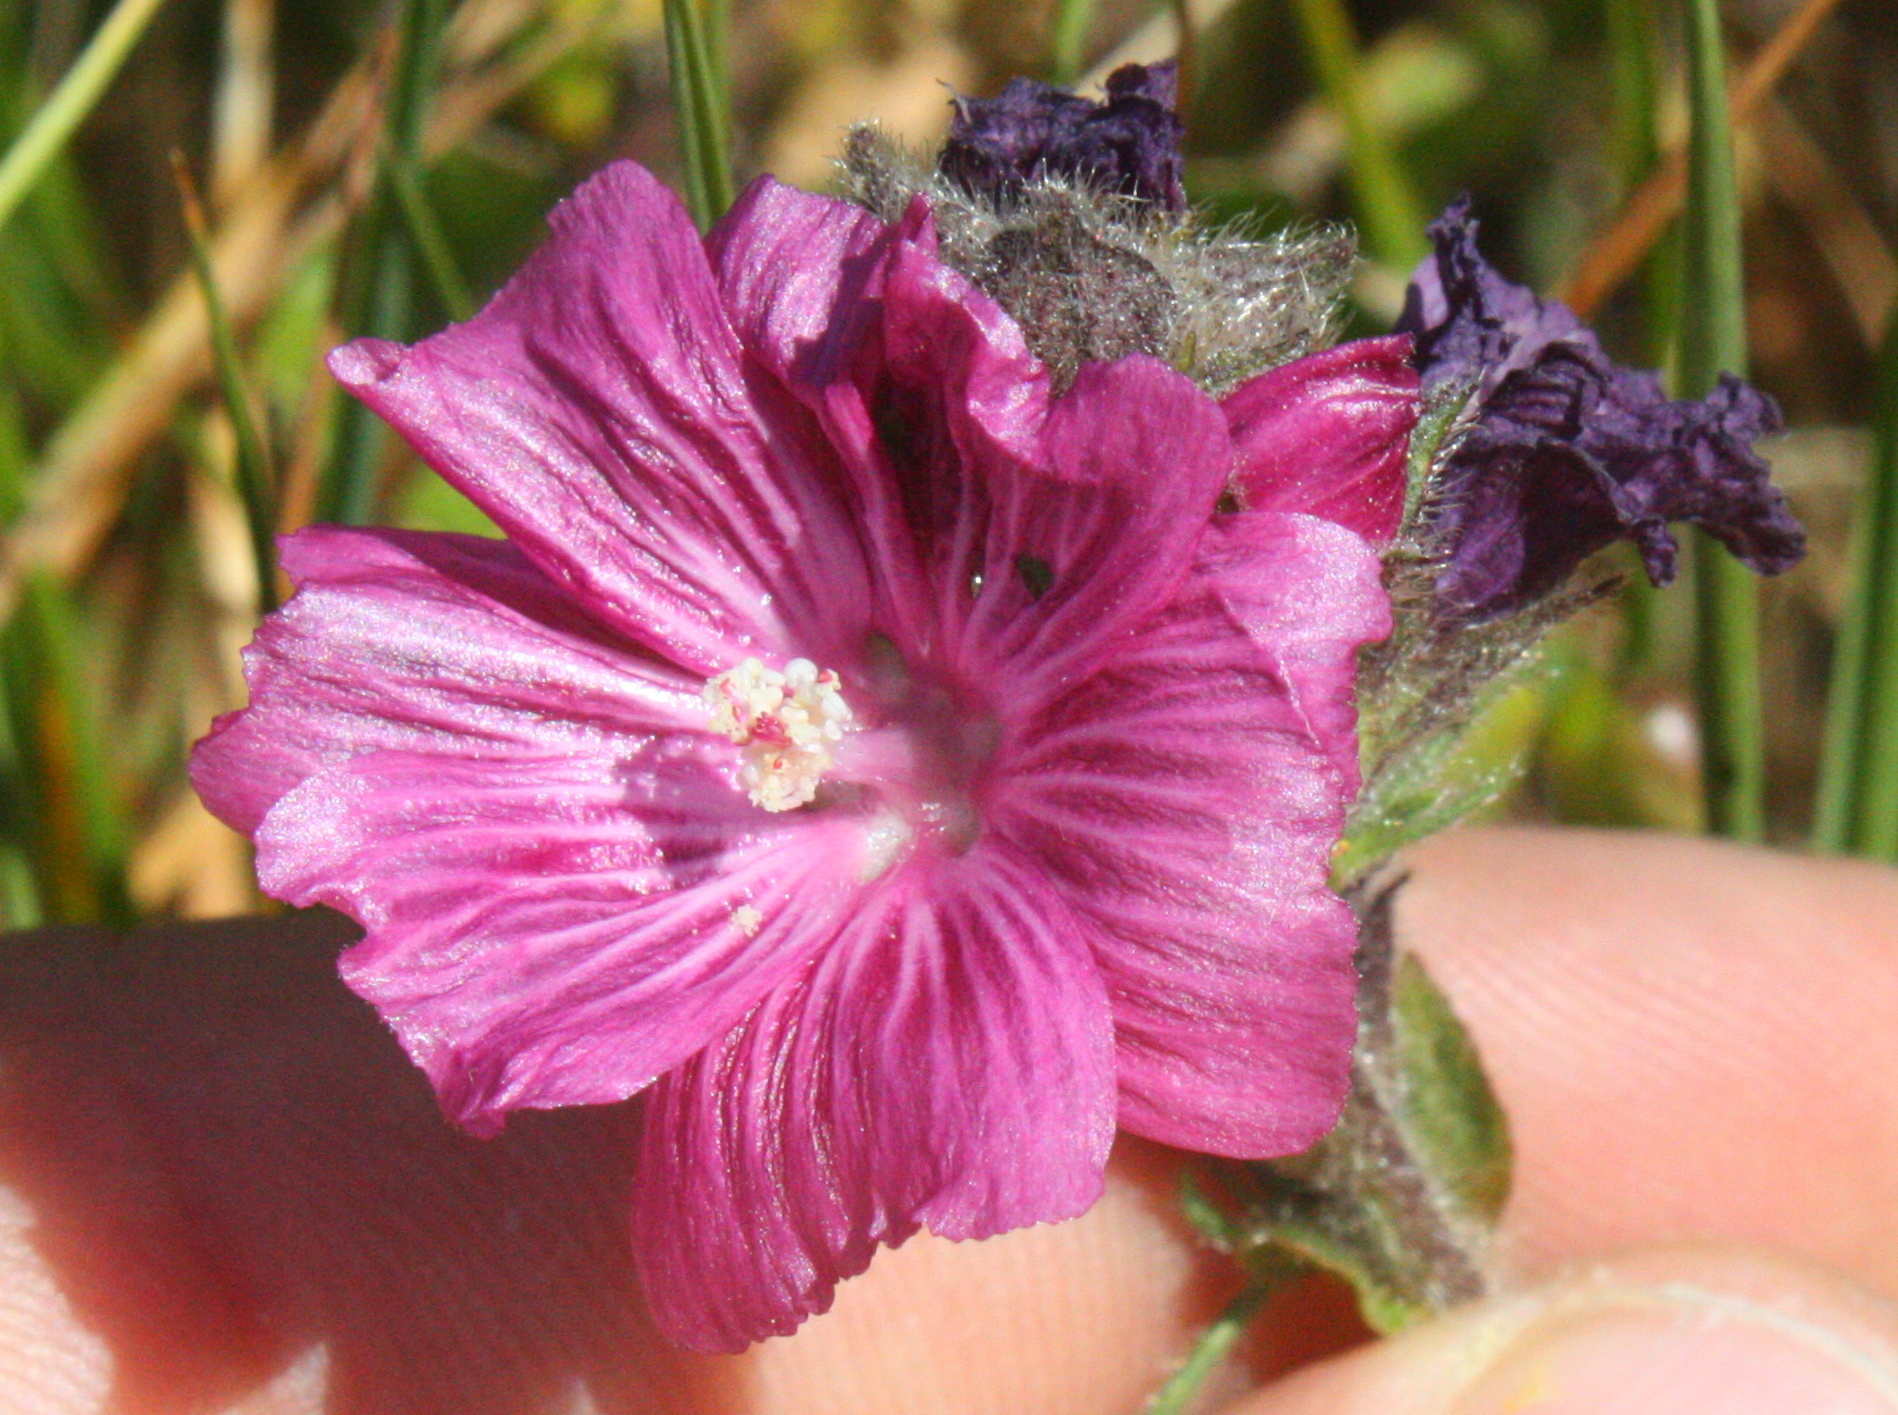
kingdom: Plantae
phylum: Tracheophyta
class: Magnoliopsida
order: Malvales
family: Malvaceae
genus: Sidalcea
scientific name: Sidalcea malviflora
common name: Greek mallow
